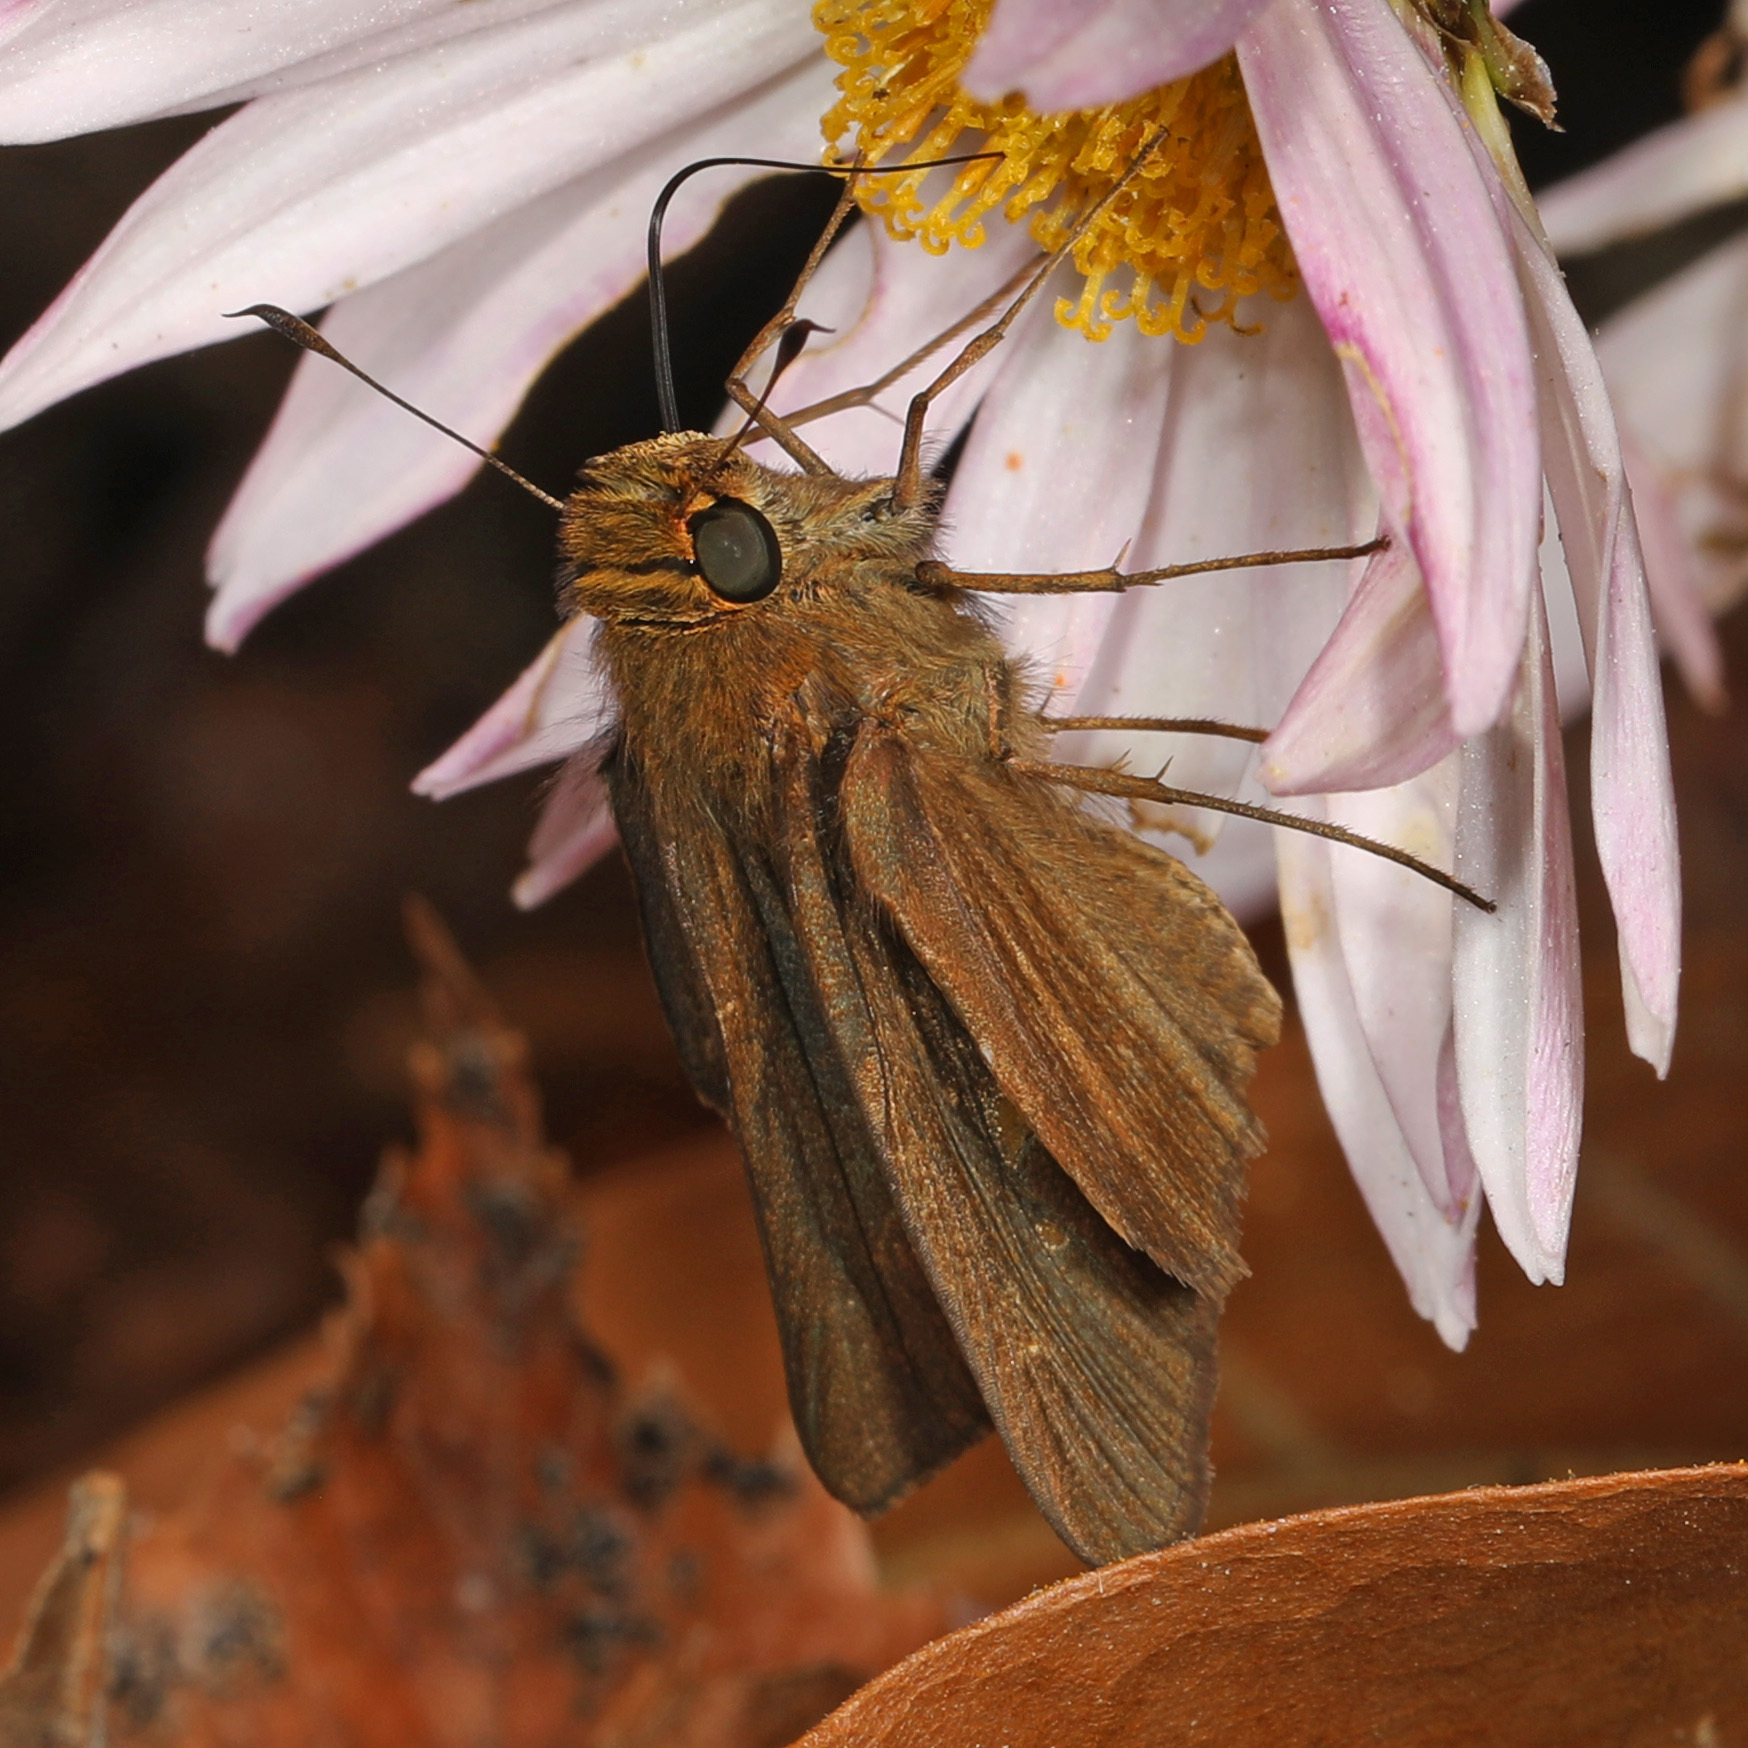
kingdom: Animalia
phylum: Arthropoda
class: Insecta
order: Lepidoptera
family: Hesperiidae
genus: Panoquina
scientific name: Panoquina ocola
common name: Ocola skipper
